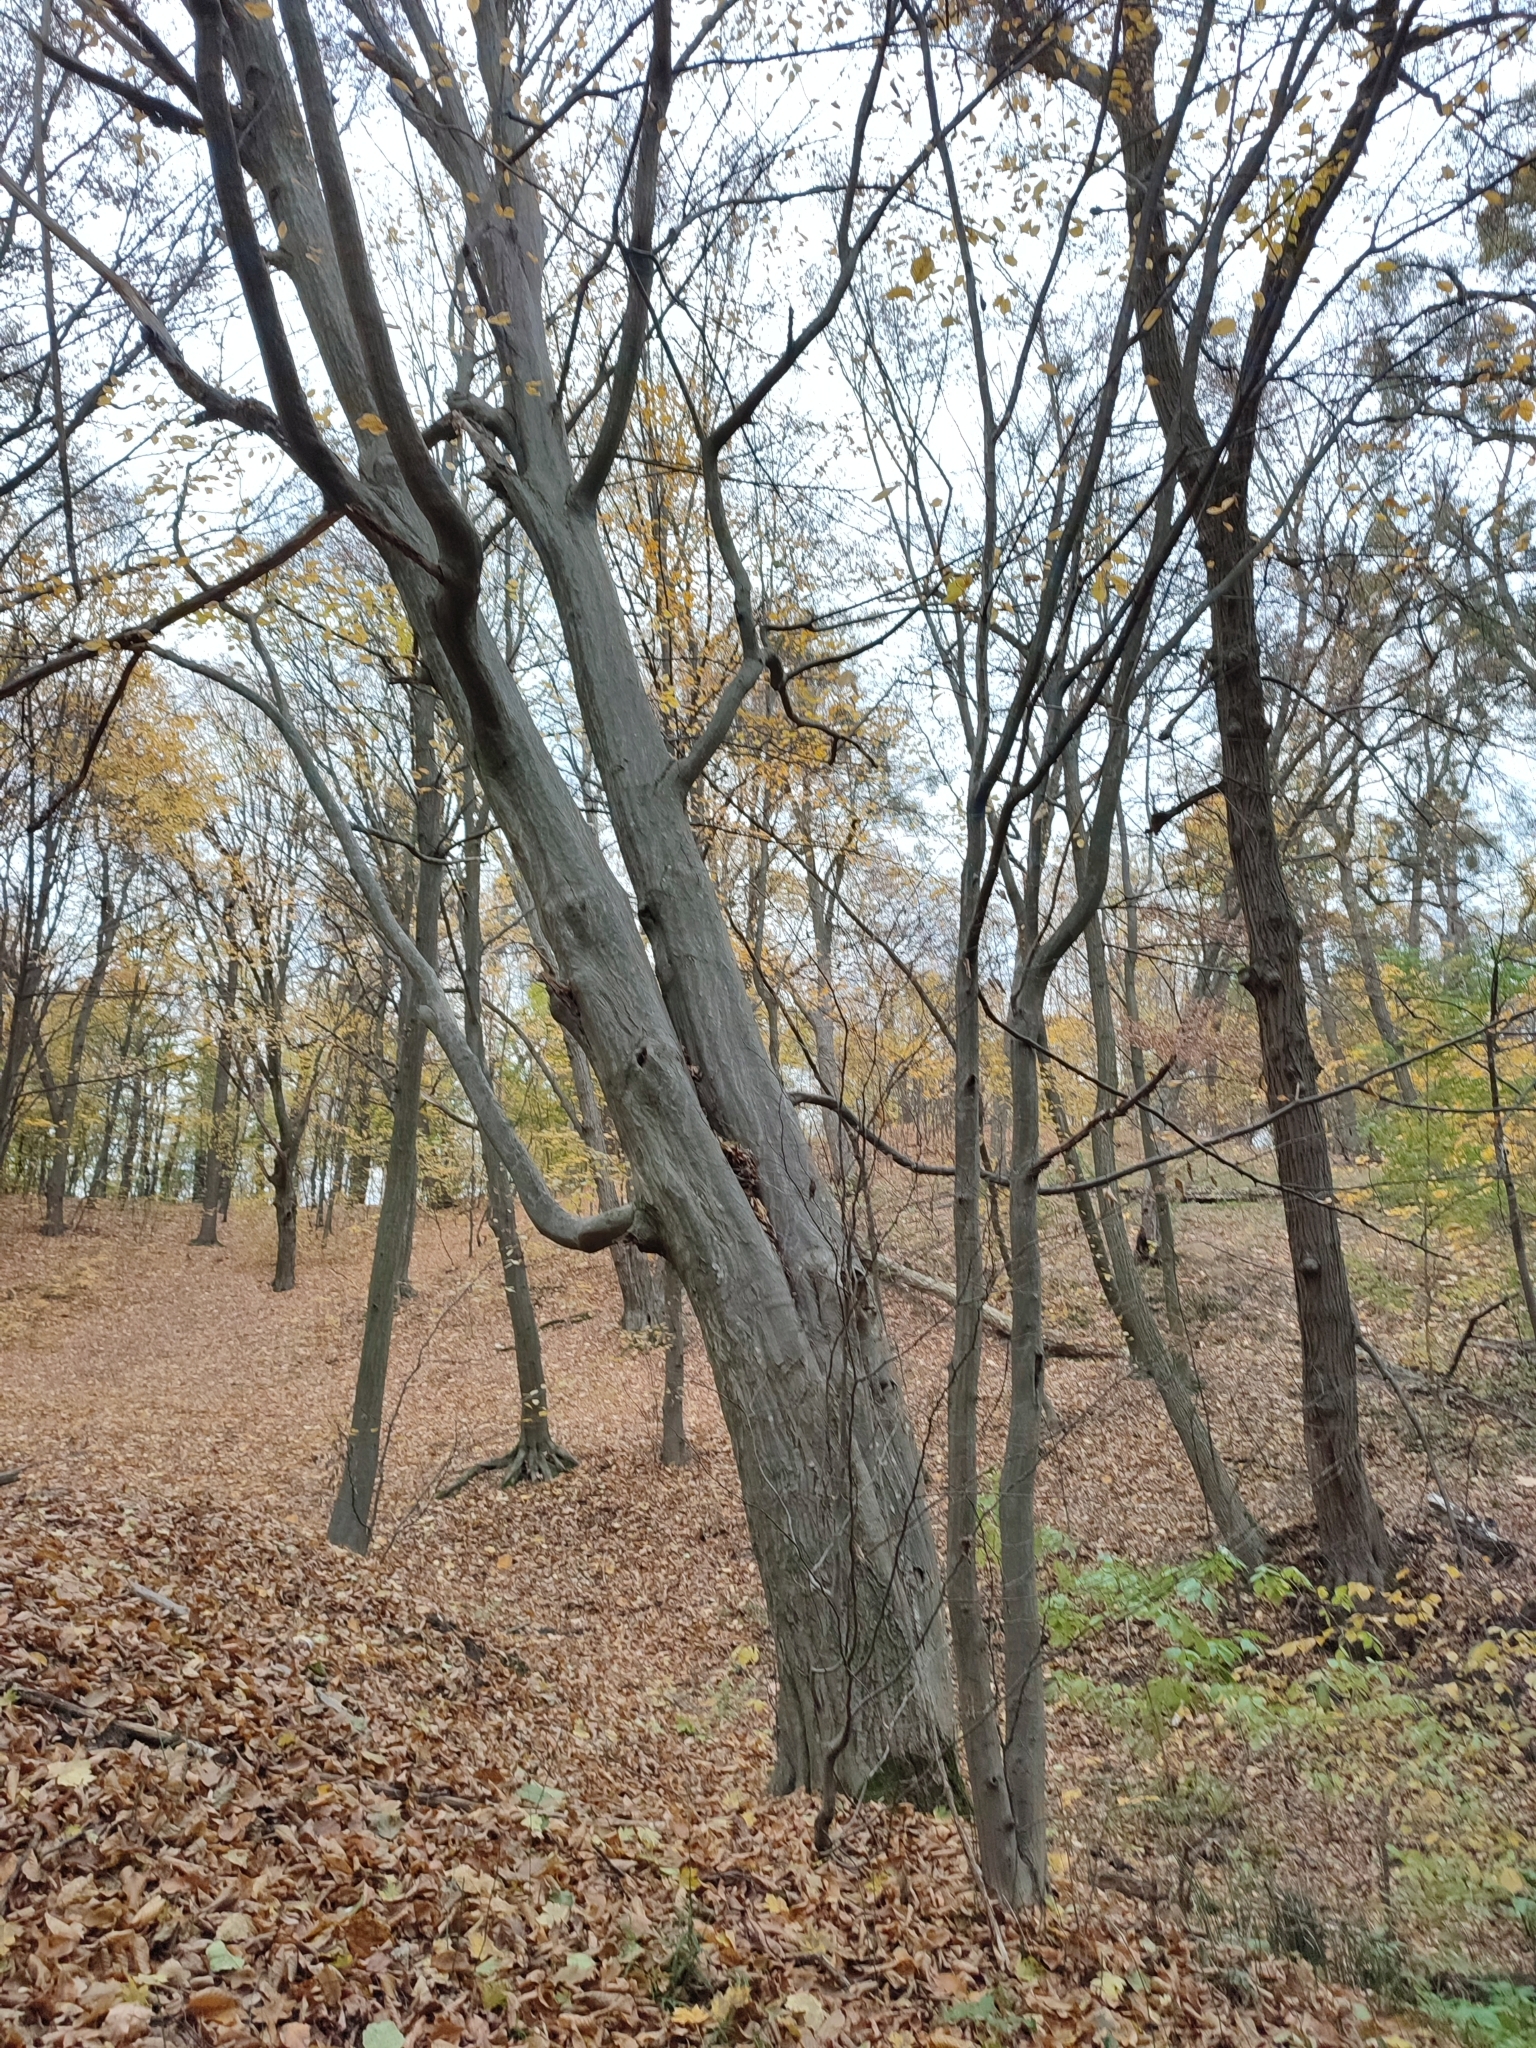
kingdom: Plantae
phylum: Tracheophyta
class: Magnoliopsida
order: Fagales
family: Betulaceae
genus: Carpinus
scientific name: Carpinus betulus
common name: Hornbeam
